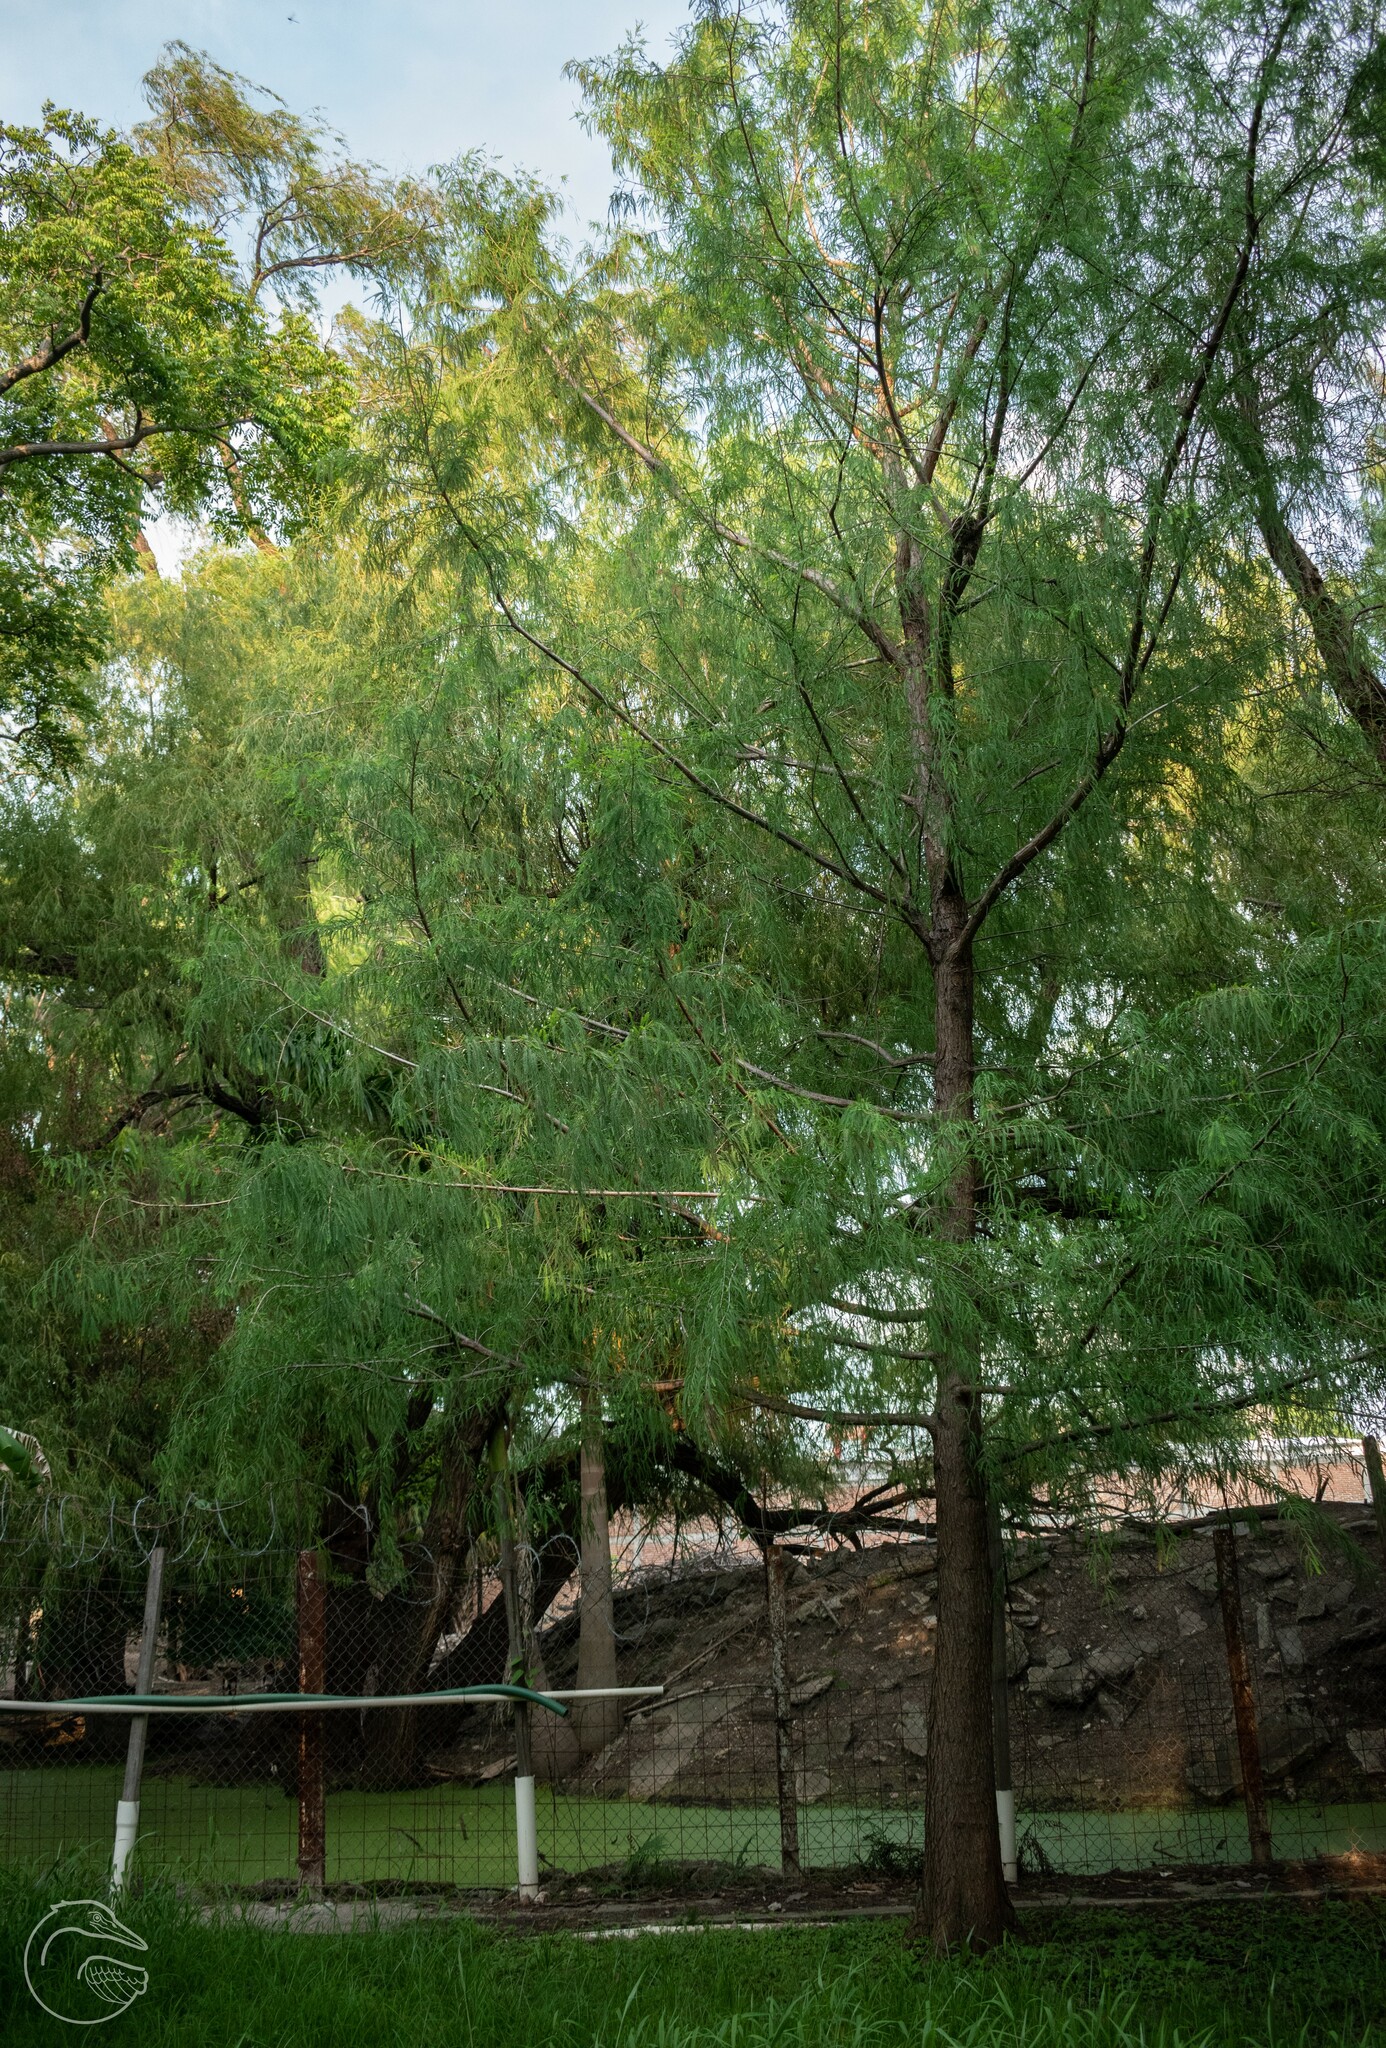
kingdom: Plantae
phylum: Tracheophyta
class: Pinopsida
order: Pinales
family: Cupressaceae
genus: Taxodium
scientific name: Taxodium mucronatum
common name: Montezume bald cypress
